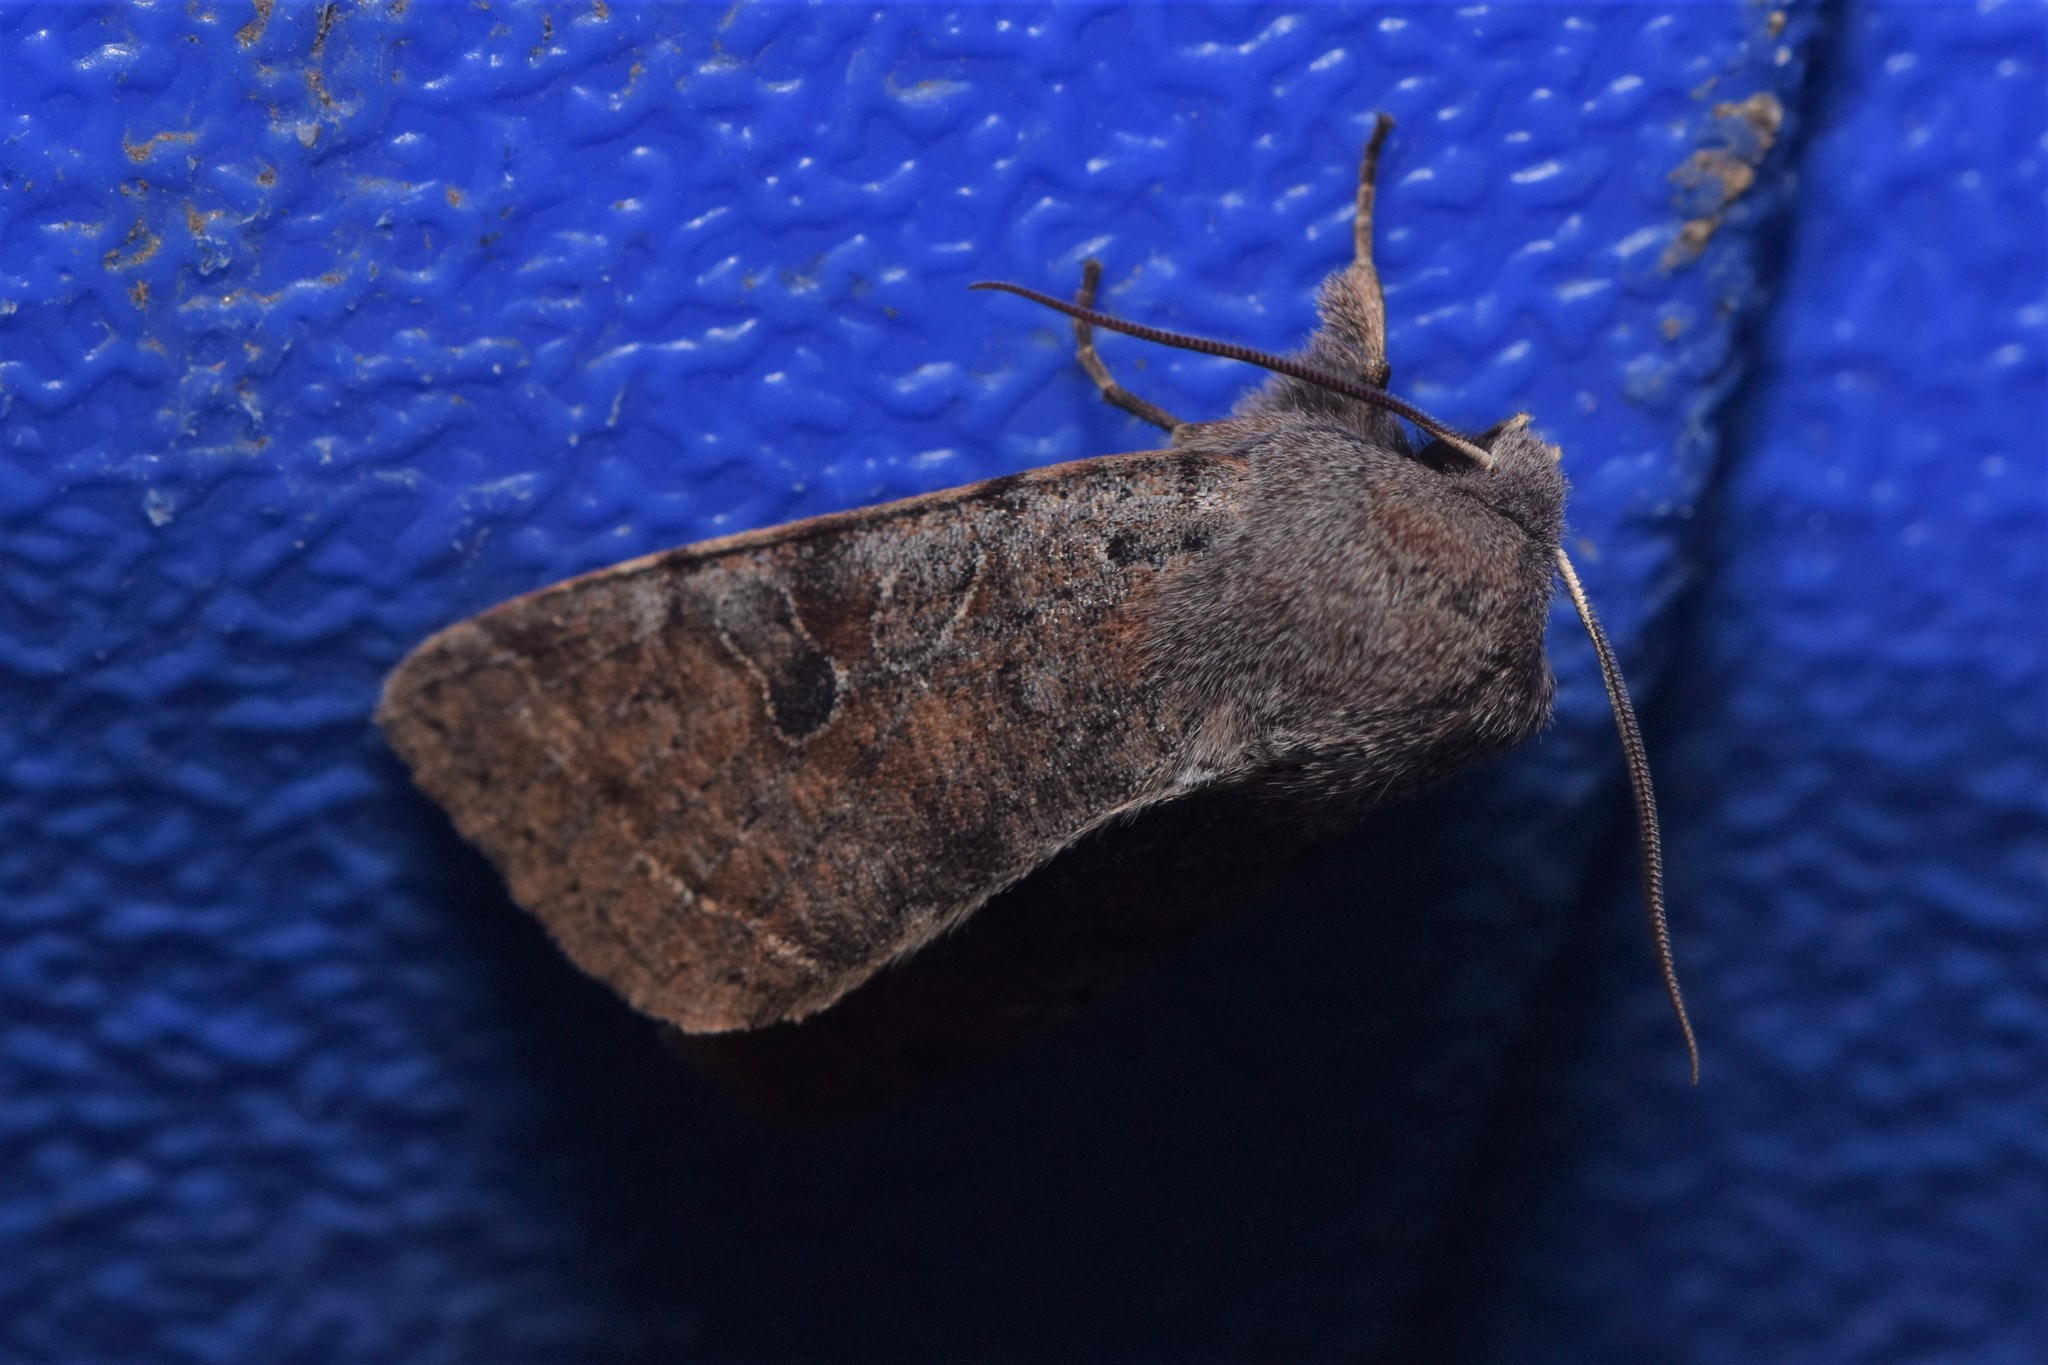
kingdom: Animalia
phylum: Arthropoda
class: Insecta
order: Lepidoptera
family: Noctuidae
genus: Orthosia
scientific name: Orthosia hibisci
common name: Green fruitworm
